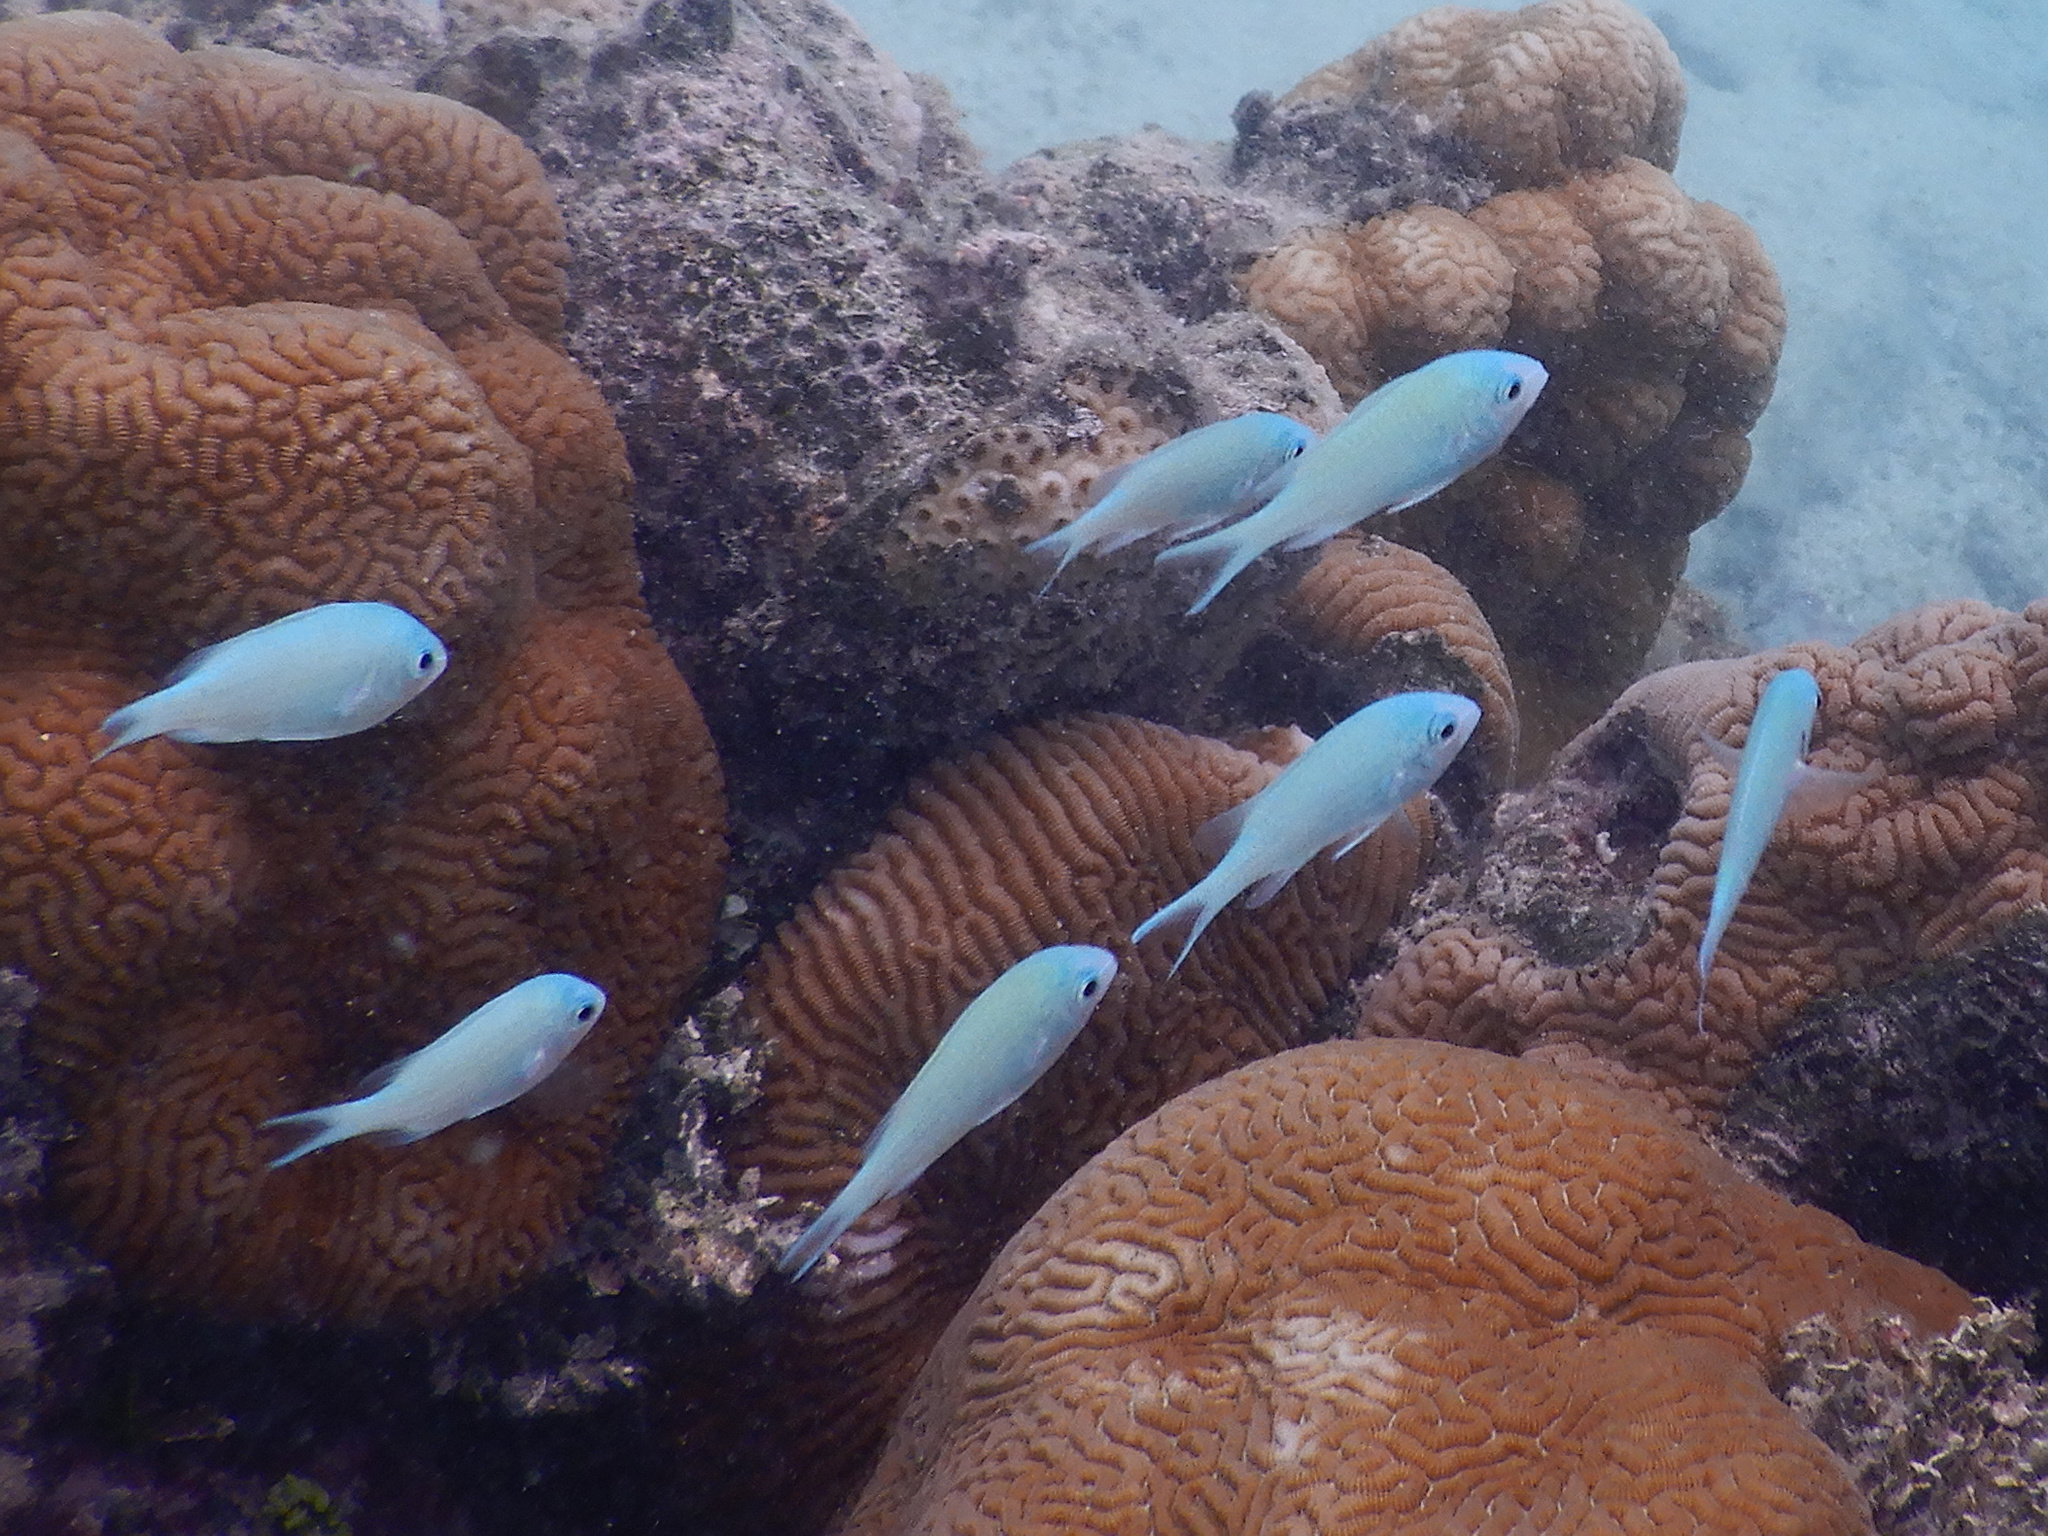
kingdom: Animalia
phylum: Chordata
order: Perciformes
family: Pomacentridae
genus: Chromis
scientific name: Chromis viridis
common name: Blue-green chromis
